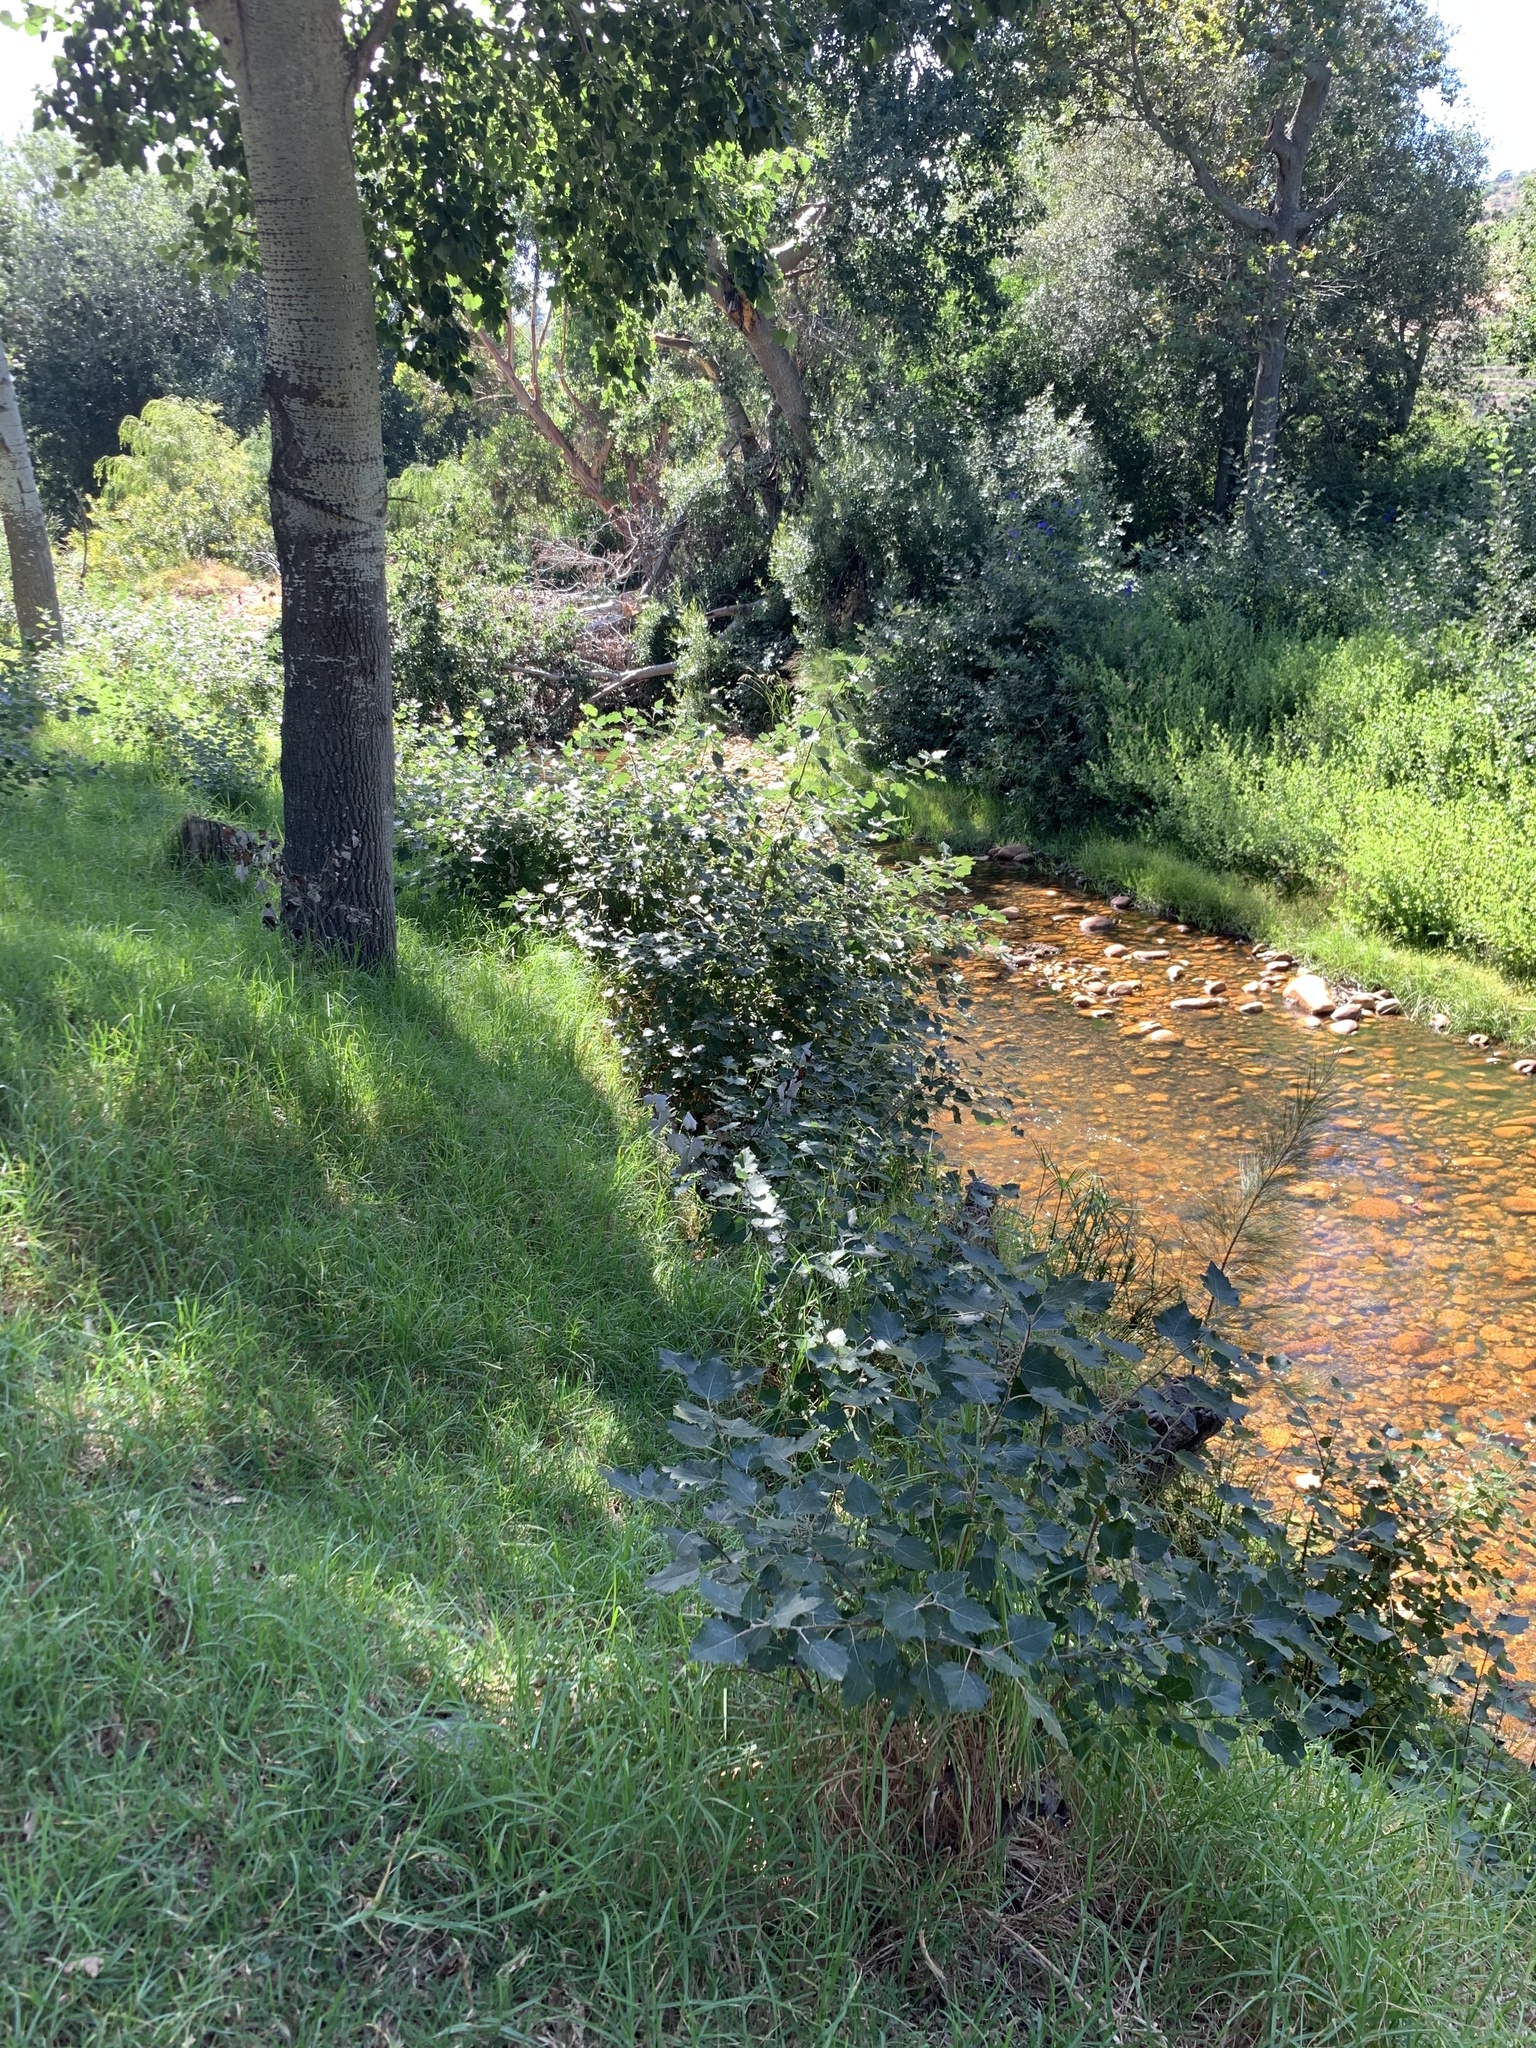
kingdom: Plantae
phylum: Tracheophyta
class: Magnoliopsida
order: Malpighiales
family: Salicaceae
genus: Populus
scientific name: Populus canescens
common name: Gray poplar
